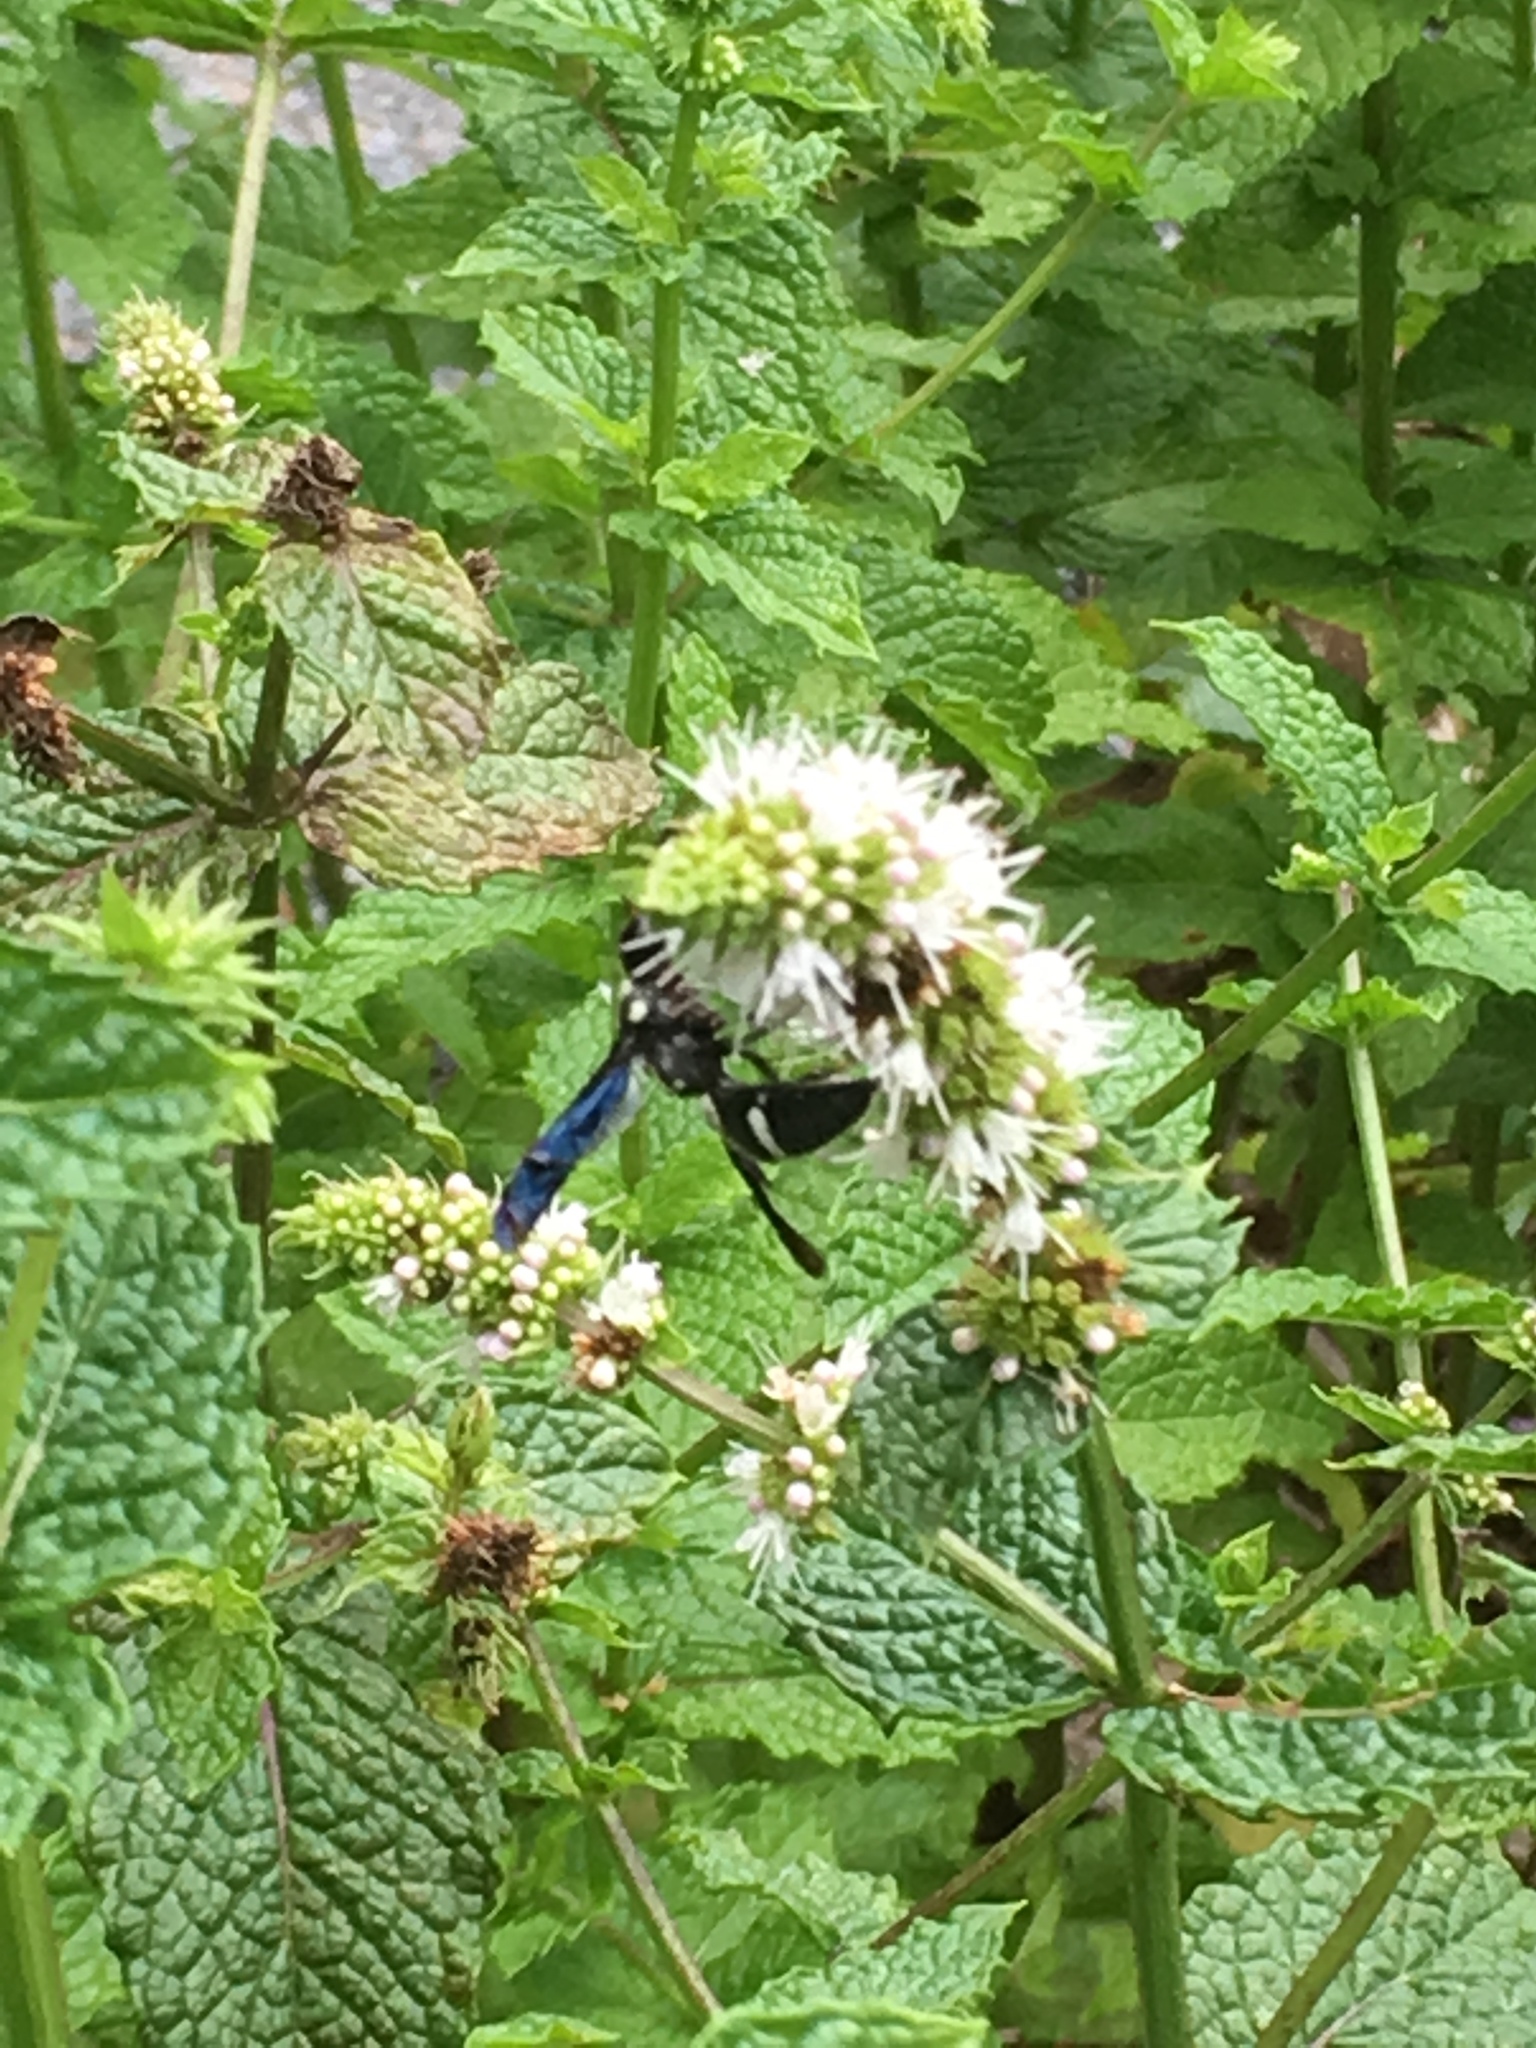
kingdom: Animalia
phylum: Arthropoda
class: Insecta
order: Hymenoptera
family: Eumenidae
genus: Pseudodynerus
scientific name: Pseudodynerus quadrisectus
